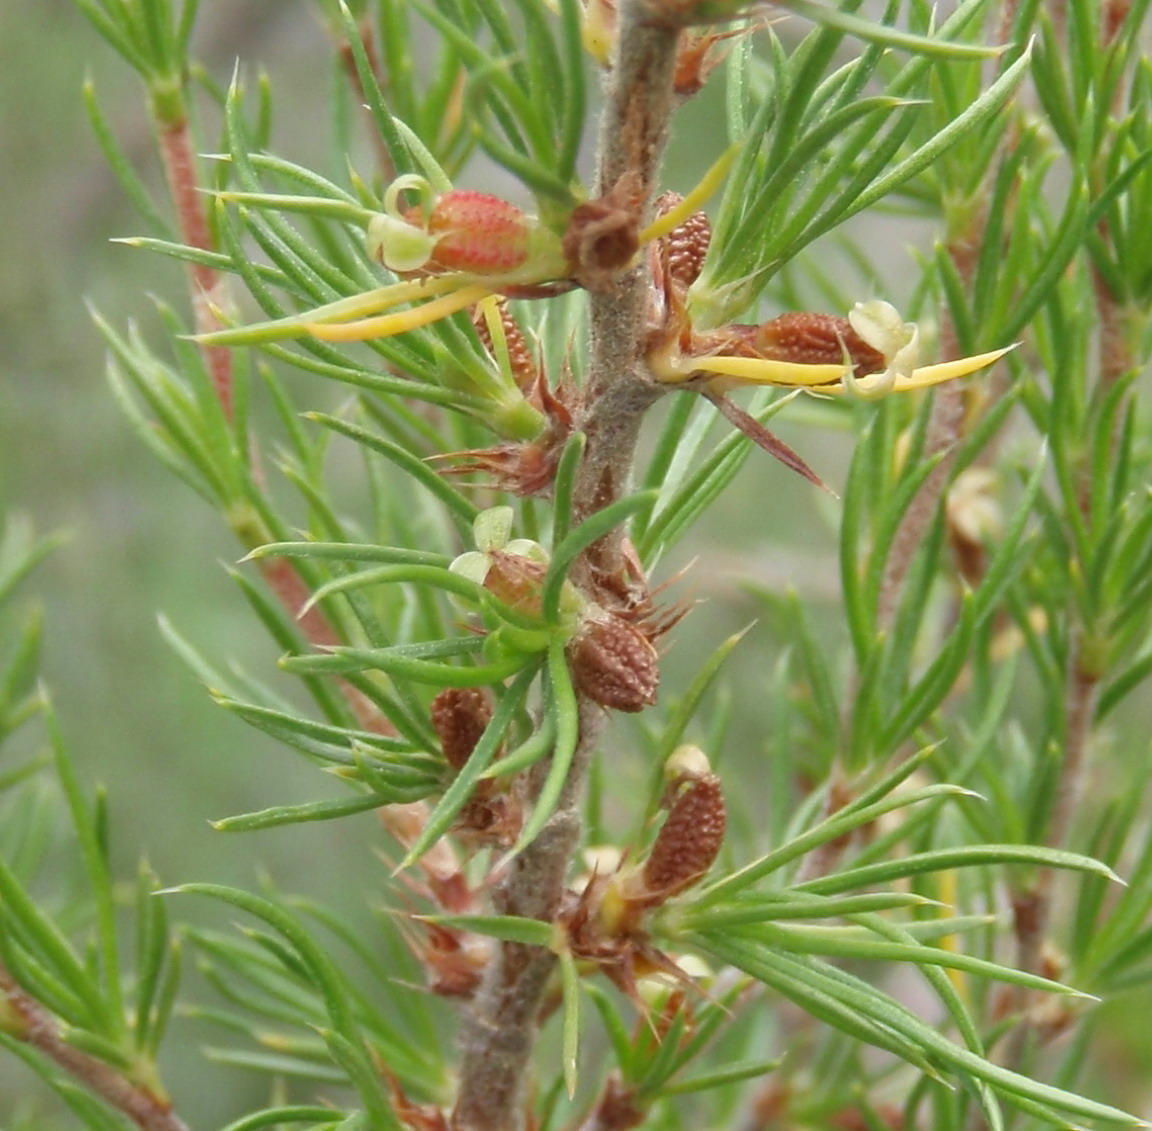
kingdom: Plantae
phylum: Tracheophyta
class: Magnoliopsida
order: Rosales
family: Rosaceae
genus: Cliffortia
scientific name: Cliffortia tuberculata
